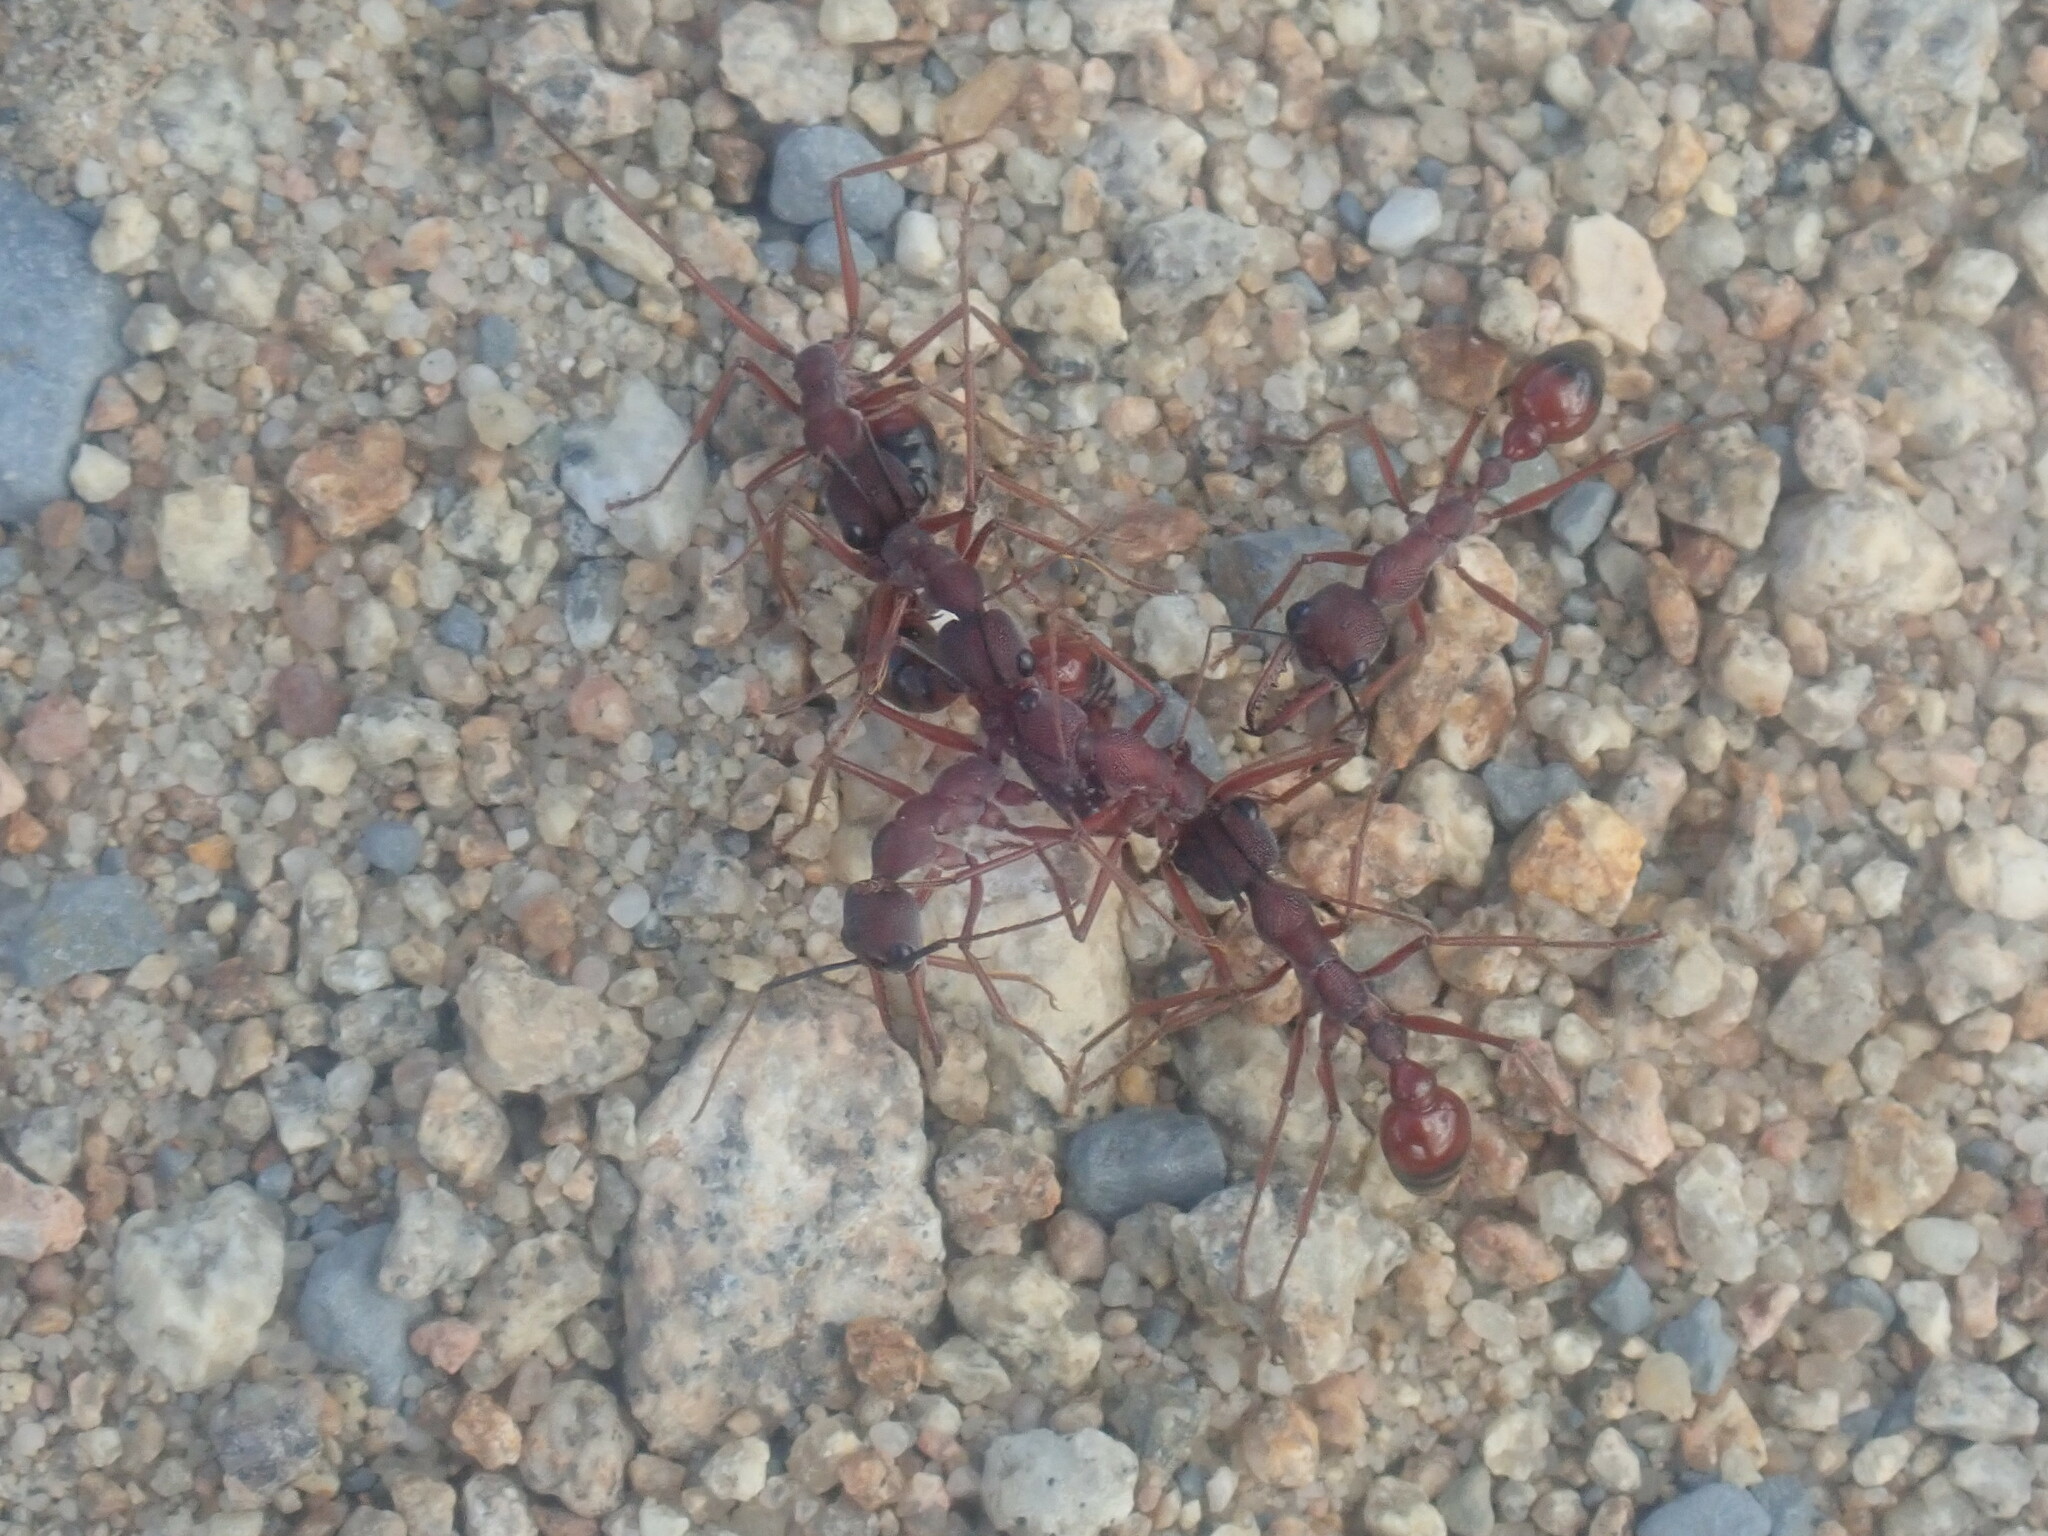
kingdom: Animalia
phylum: Arthropoda
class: Insecta
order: Hymenoptera
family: Formicidae
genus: Myrmecia
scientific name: Myrmecia nigriscapa
